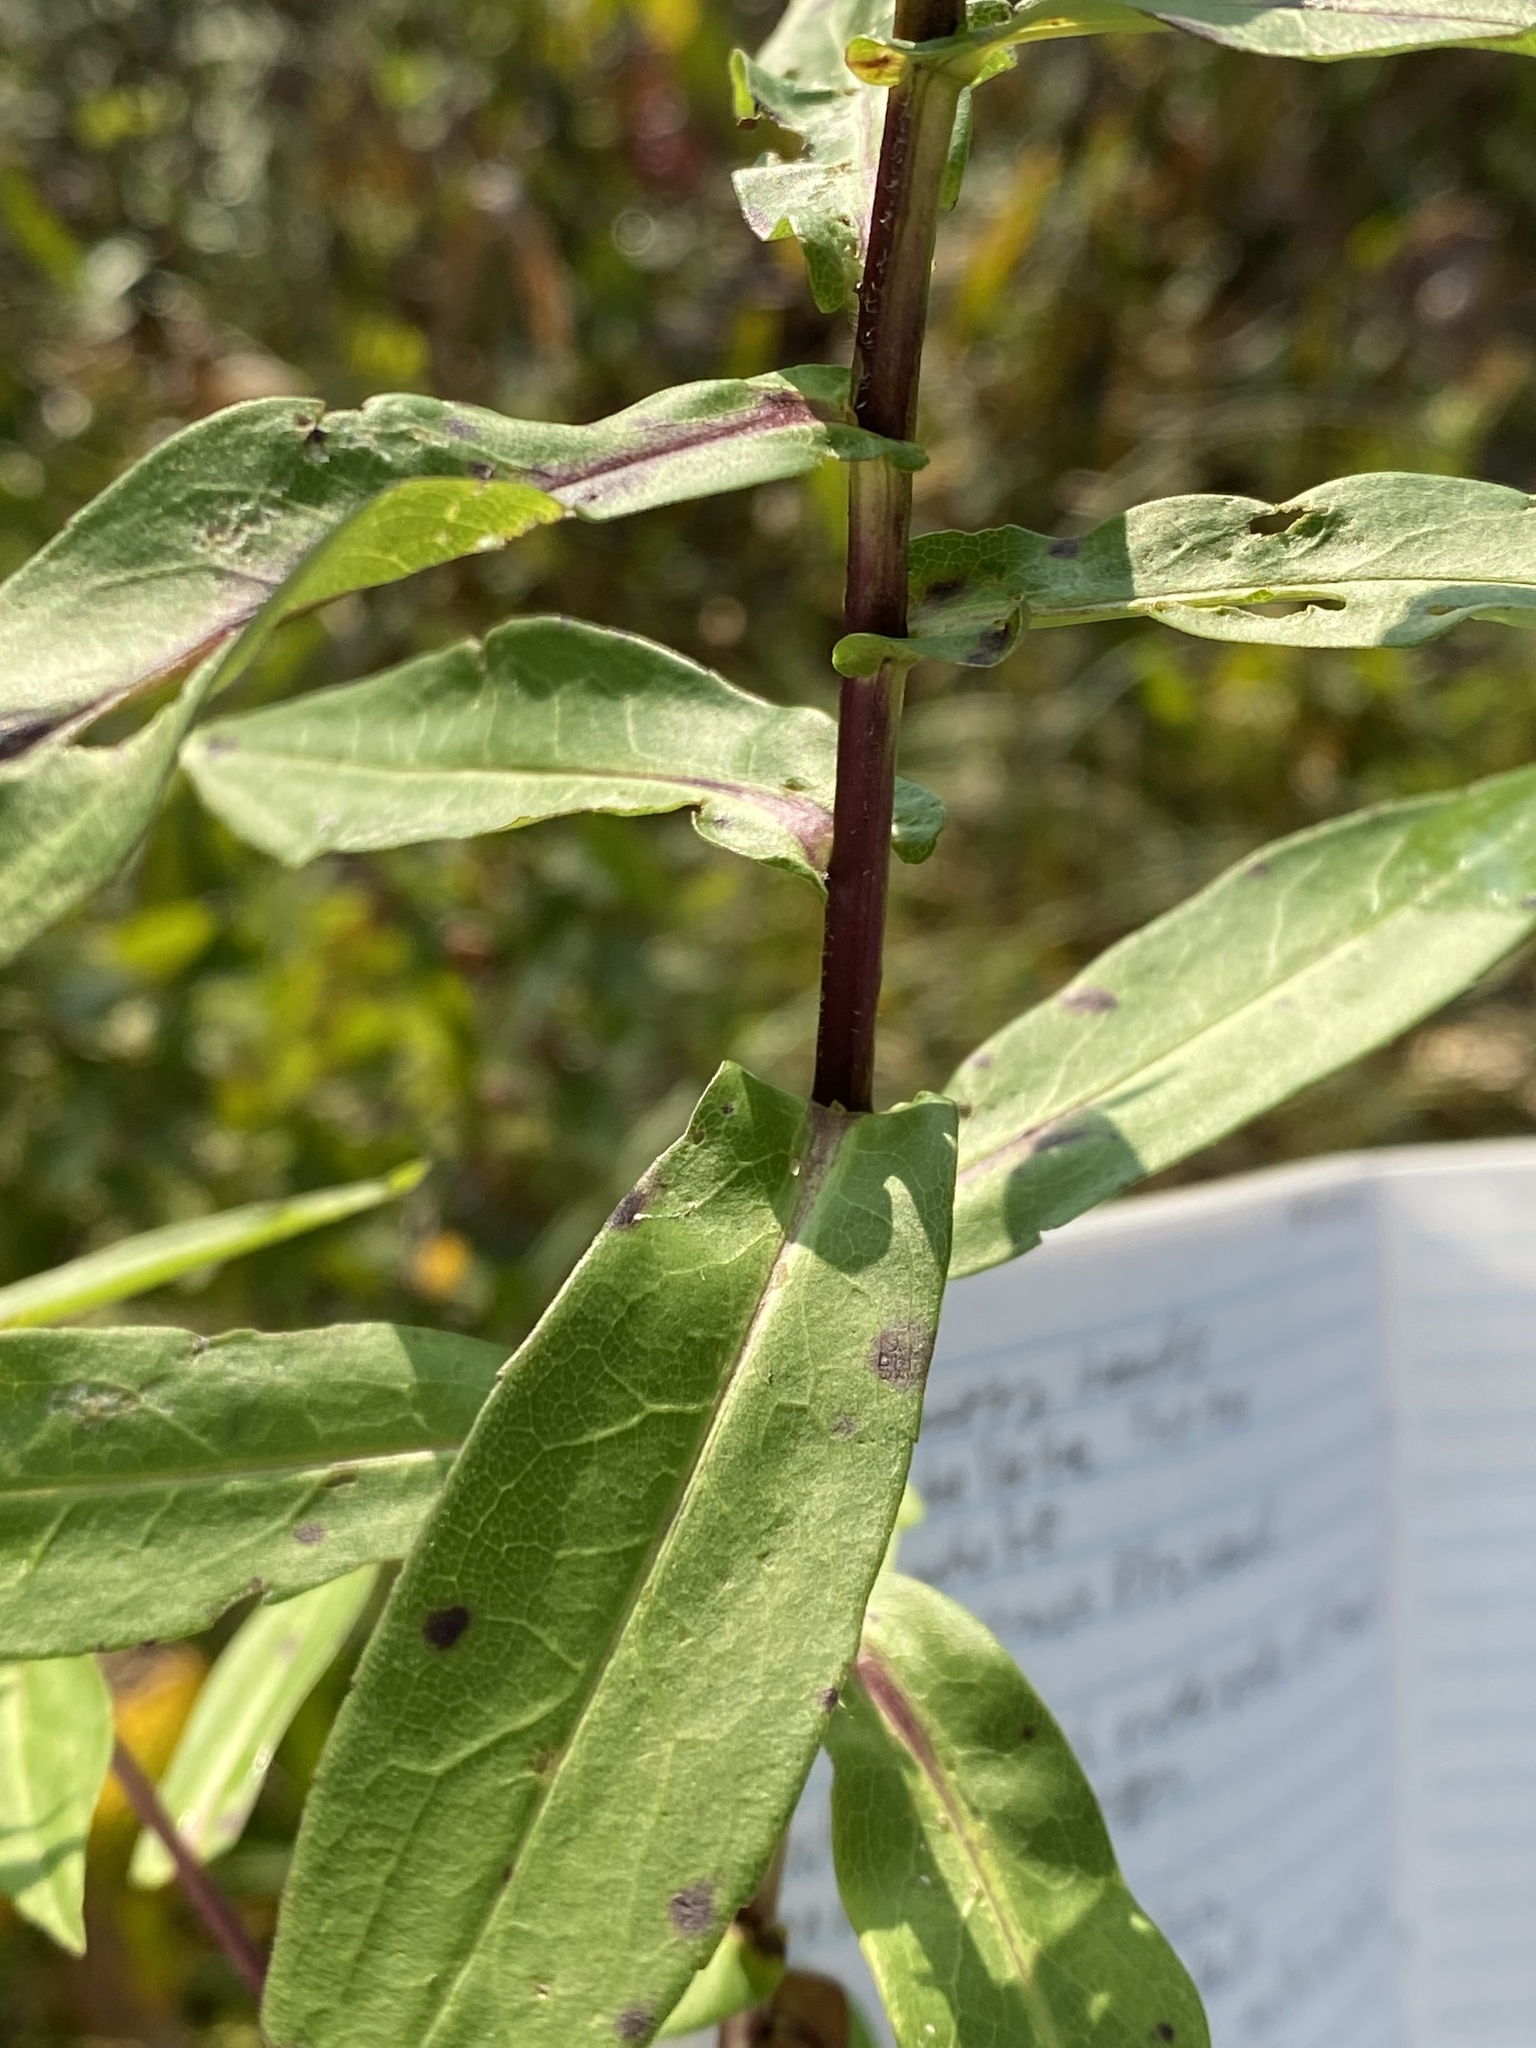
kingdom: Plantae
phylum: Tracheophyta
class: Magnoliopsida
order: Asterales
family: Asteraceae
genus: Symphyotrichum
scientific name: Symphyotrichum puniceum
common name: Bog aster
